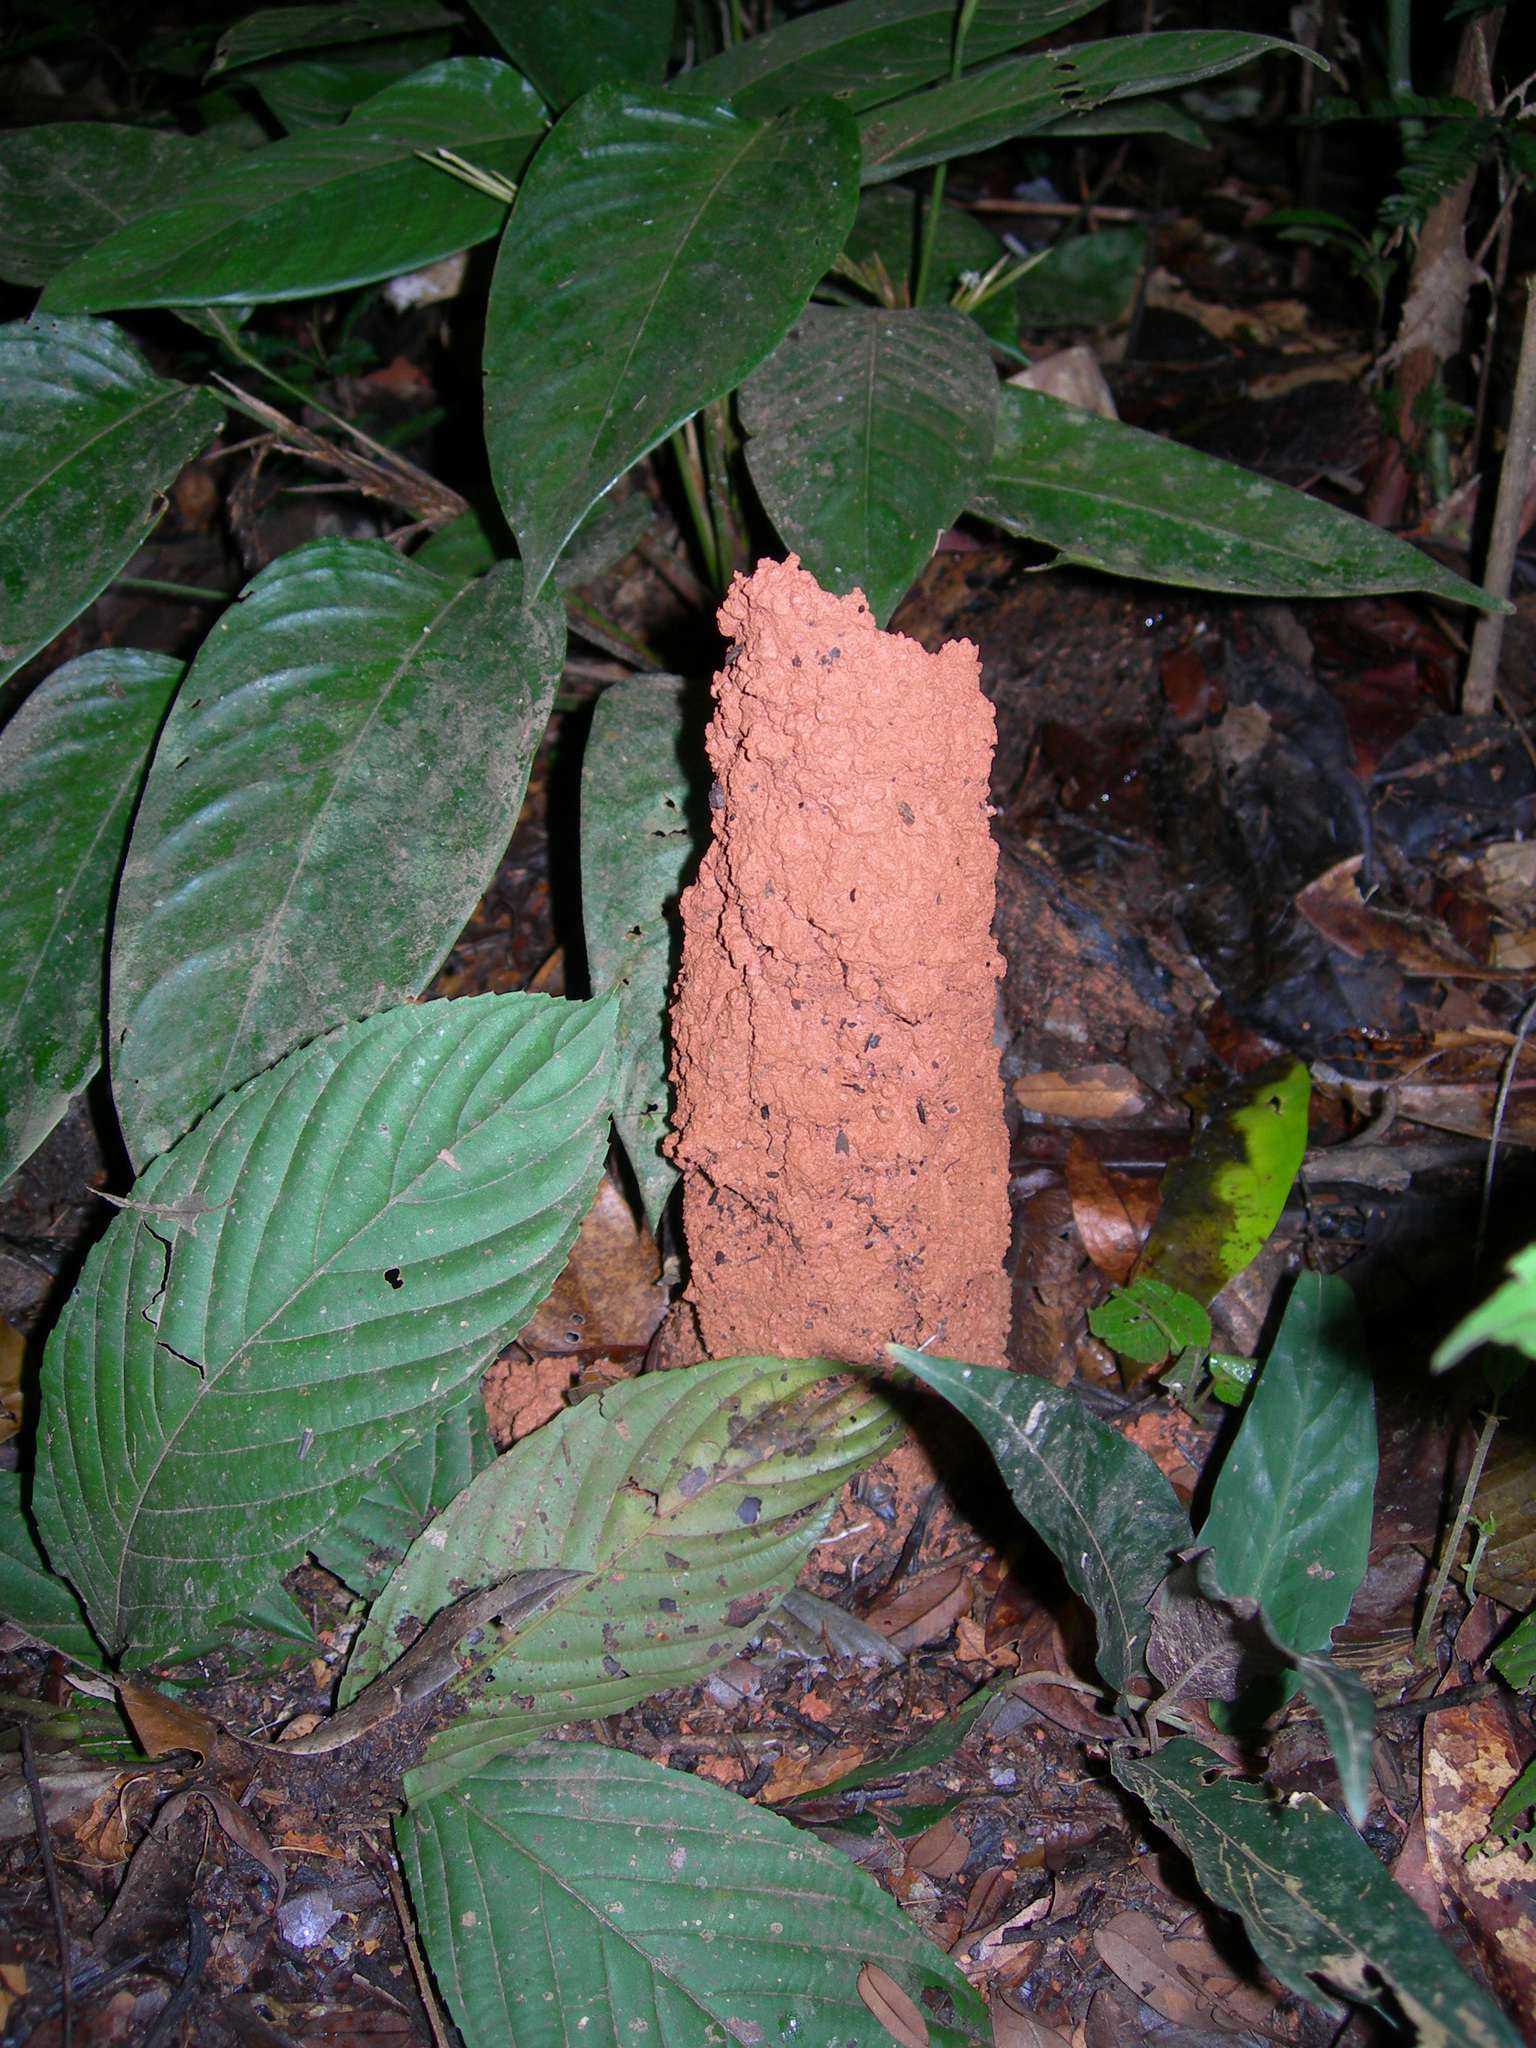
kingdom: Animalia
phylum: Arthropoda
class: Insecta
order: Hemiptera
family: Cicadidae
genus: Guyalna
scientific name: Guyalna chlorogena
